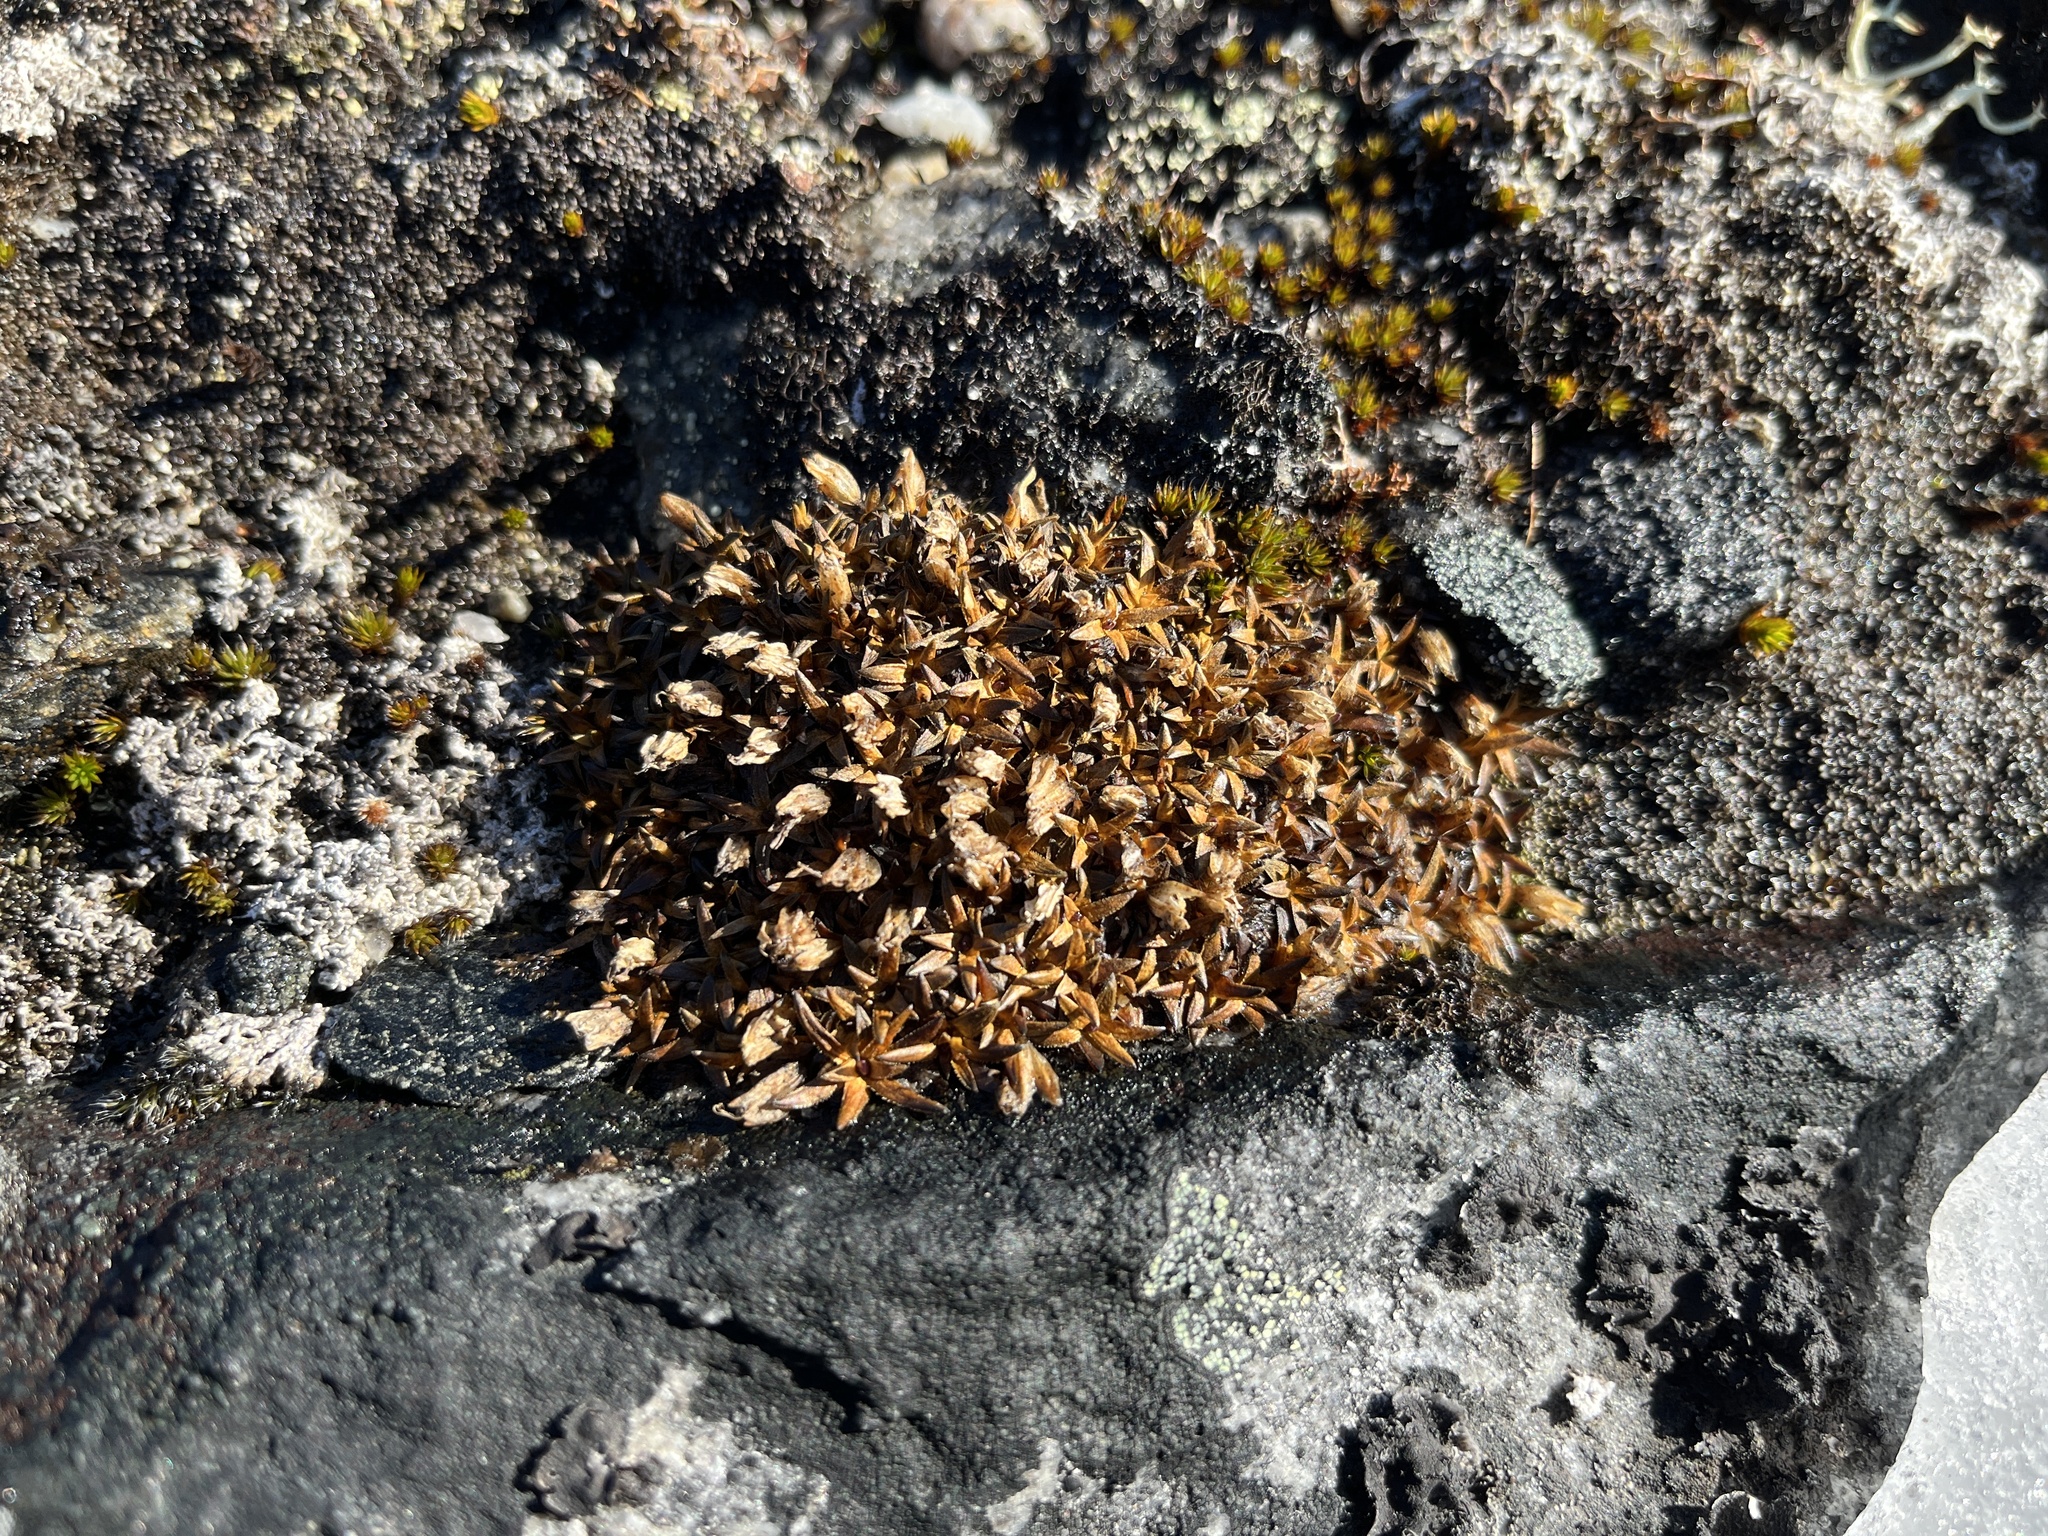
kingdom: Plantae
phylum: Tracheophyta
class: Magnoliopsida
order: Caryophyllales
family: Caryophyllaceae
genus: Silene
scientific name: Silene acaulis
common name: Moss campion
